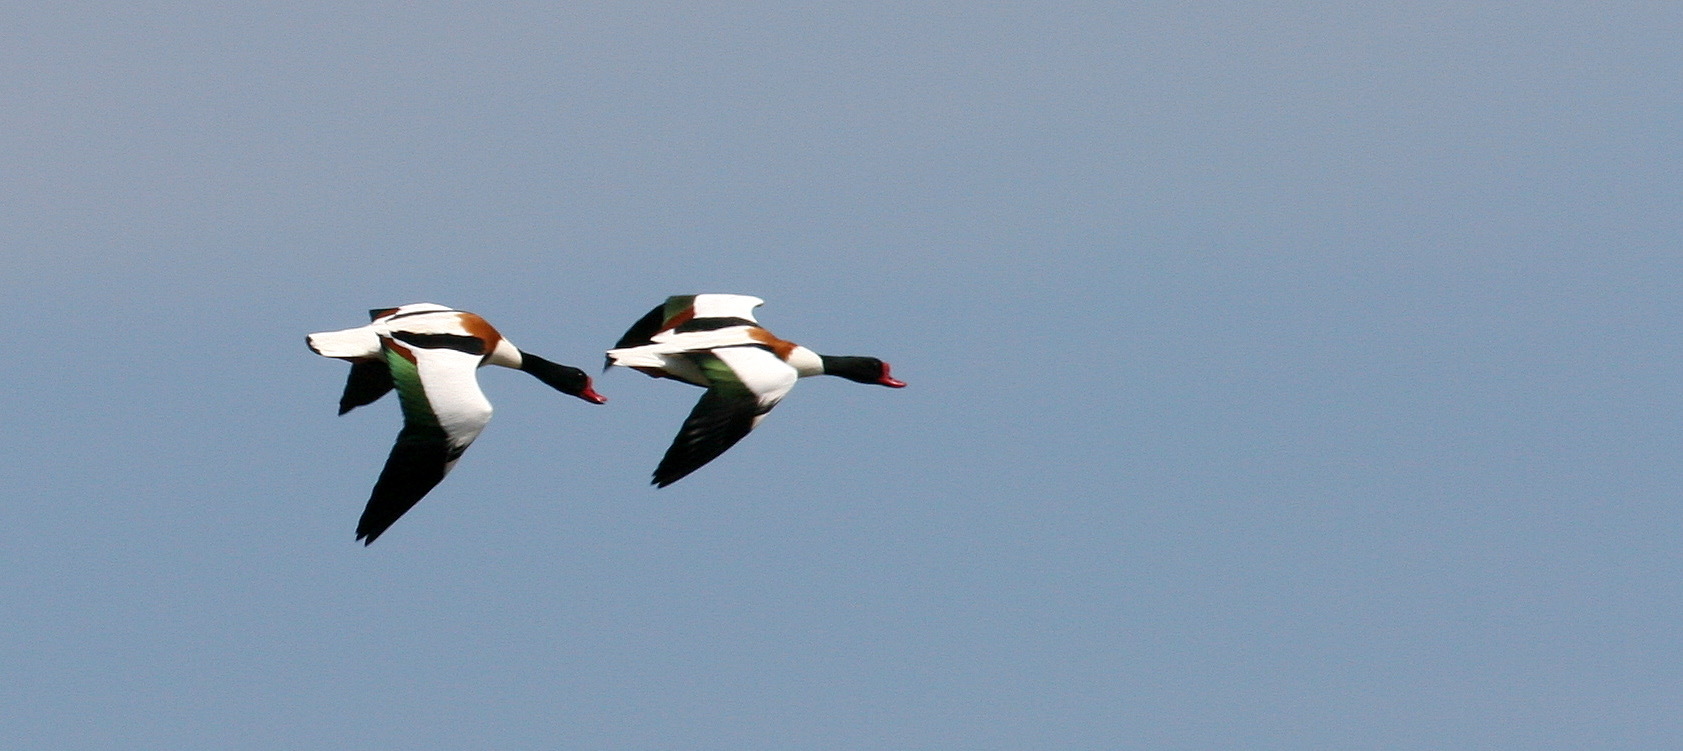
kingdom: Animalia
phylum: Chordata
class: Aves
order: Anseriformes
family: Anatidae
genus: Tadorna
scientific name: Tadorna tadorna
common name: Common shelduck
